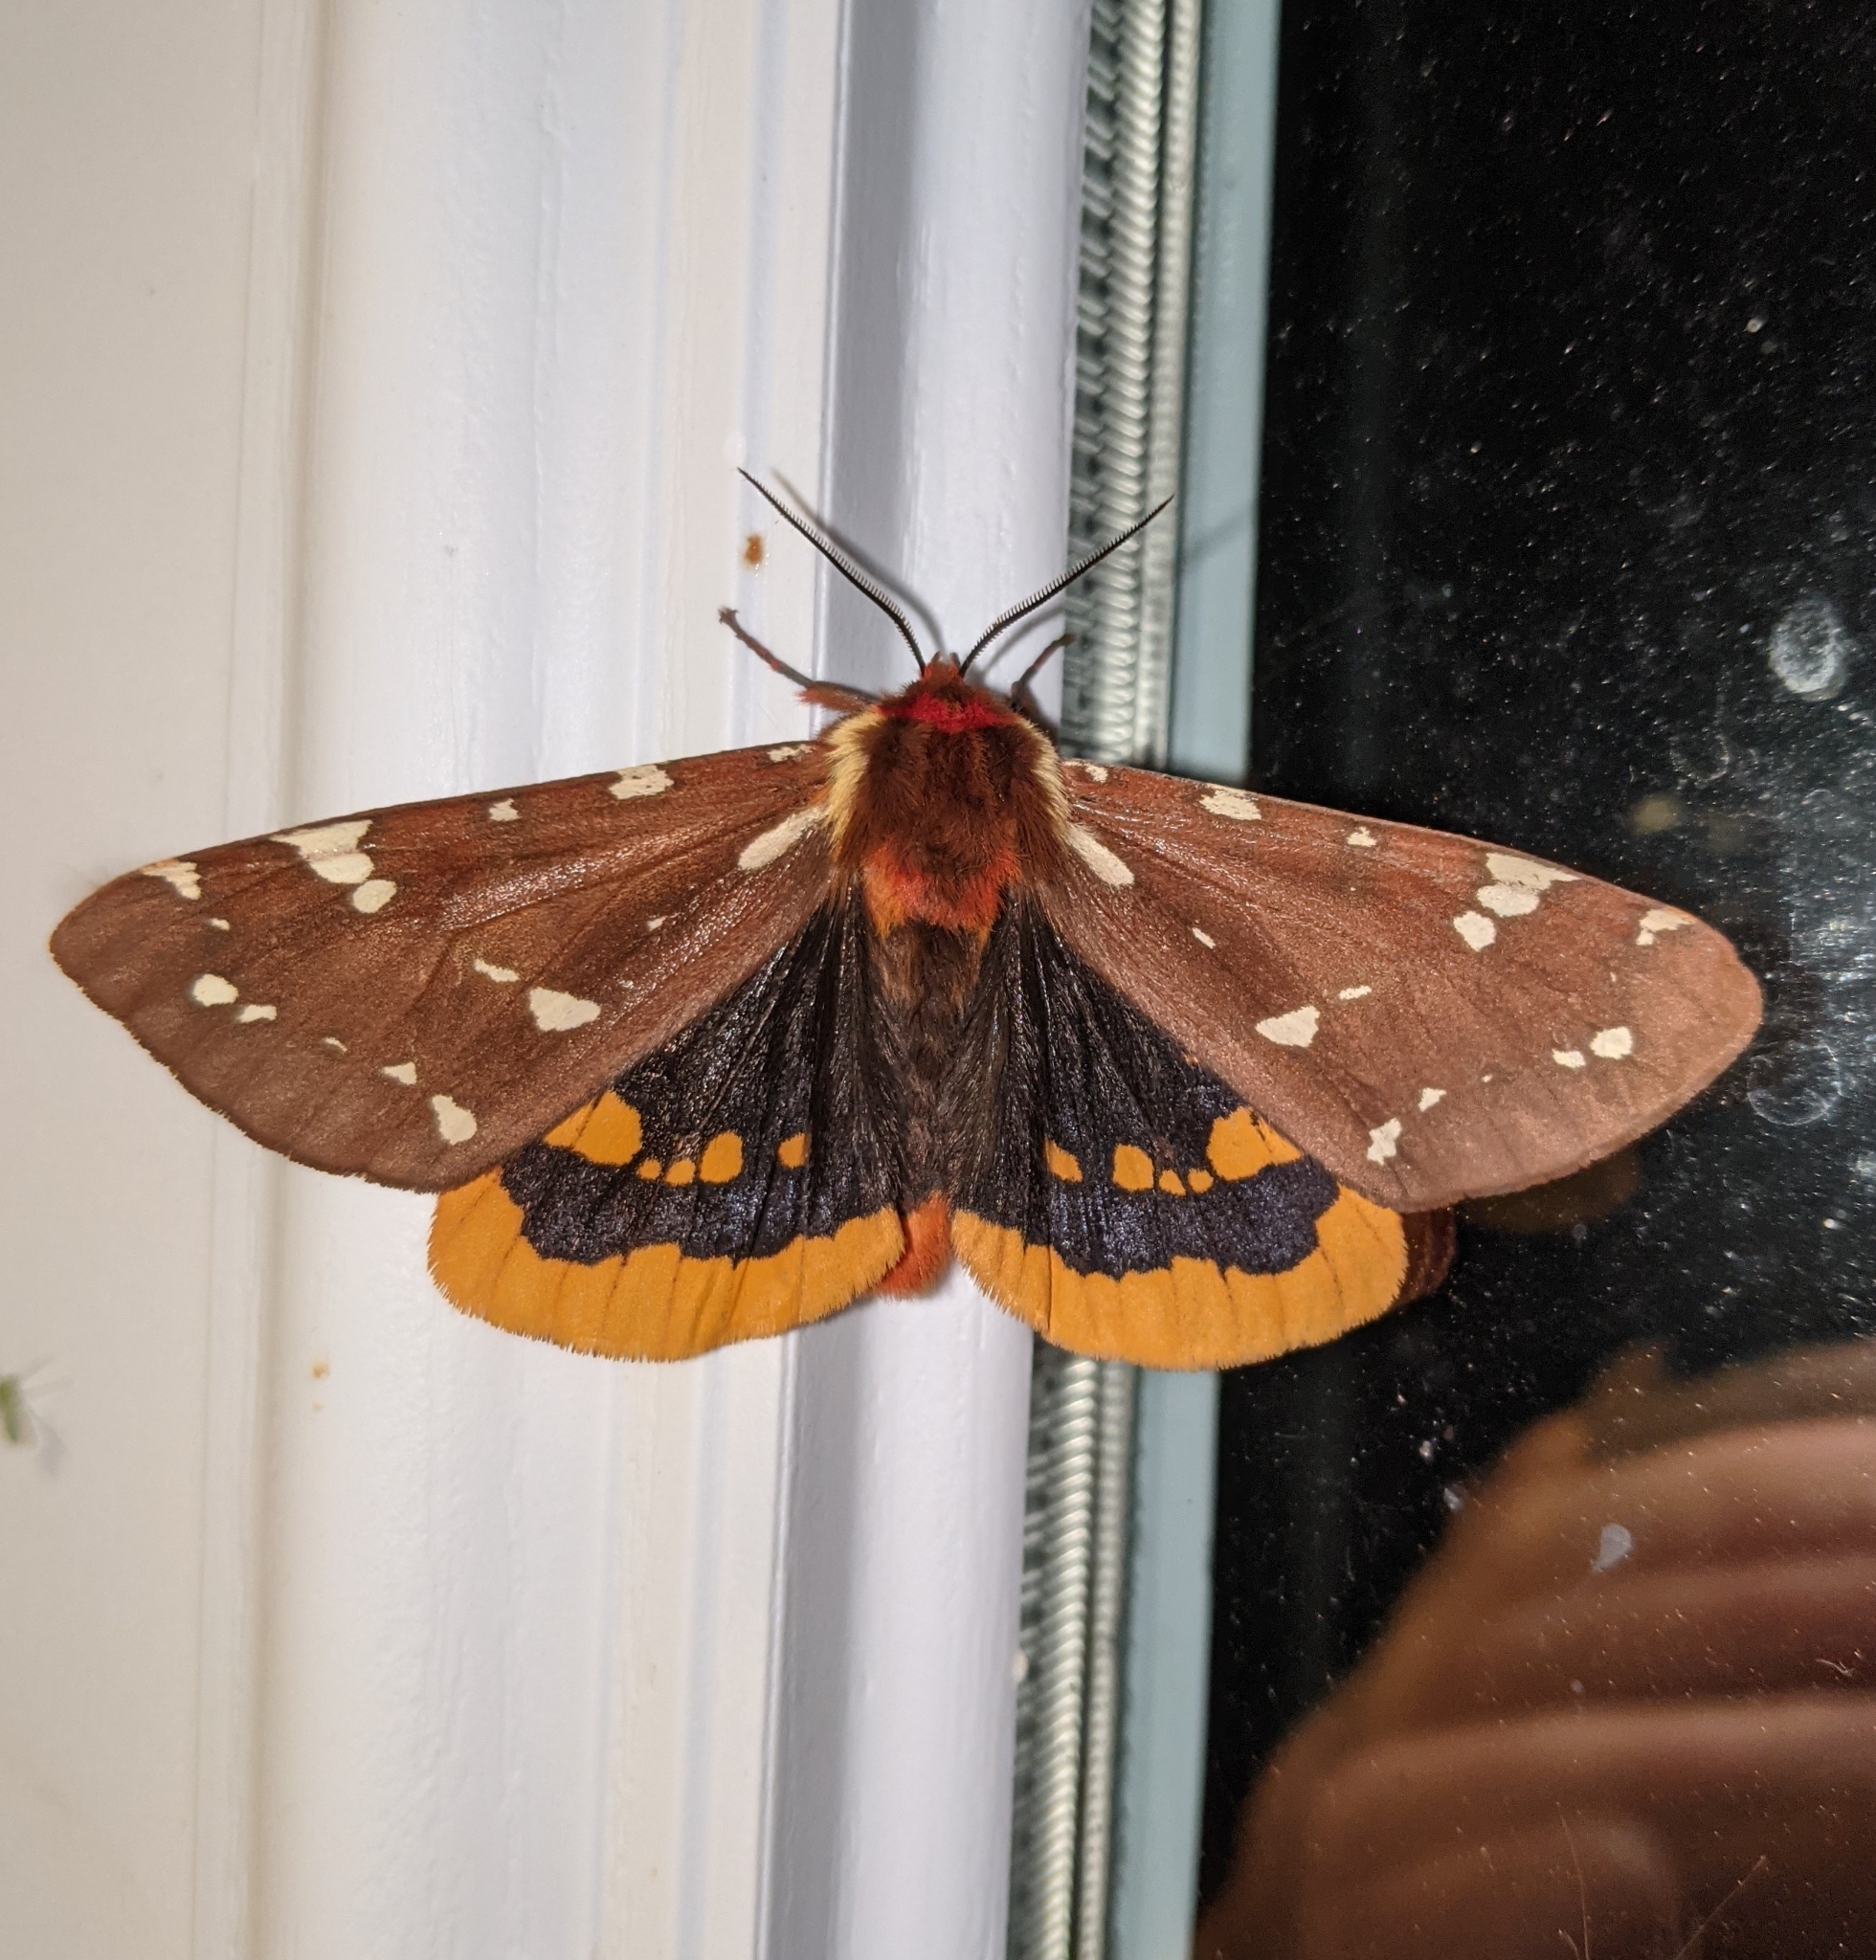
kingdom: Animalia
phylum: Arthropoda
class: Insecta
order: Lepidoptera
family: Erebidae
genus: Arctia
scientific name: Arctia parthenos
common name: St. lawrence tiger moth
